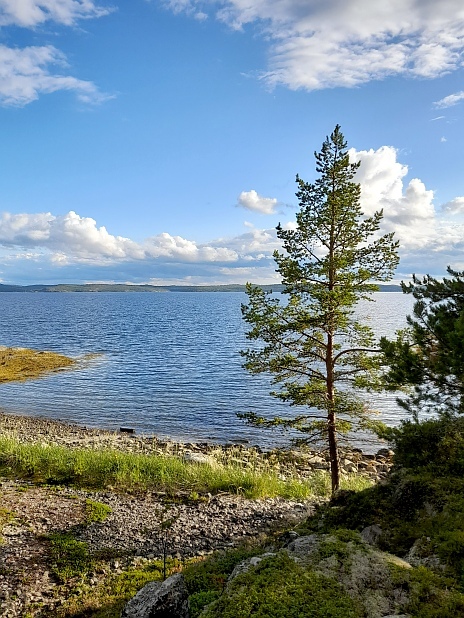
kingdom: Plantae
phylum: Tracheophyta
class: Pinopsida
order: Pinales
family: Pinaceae
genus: Pinus
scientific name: Pinus sylvestris
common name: Scots pine
